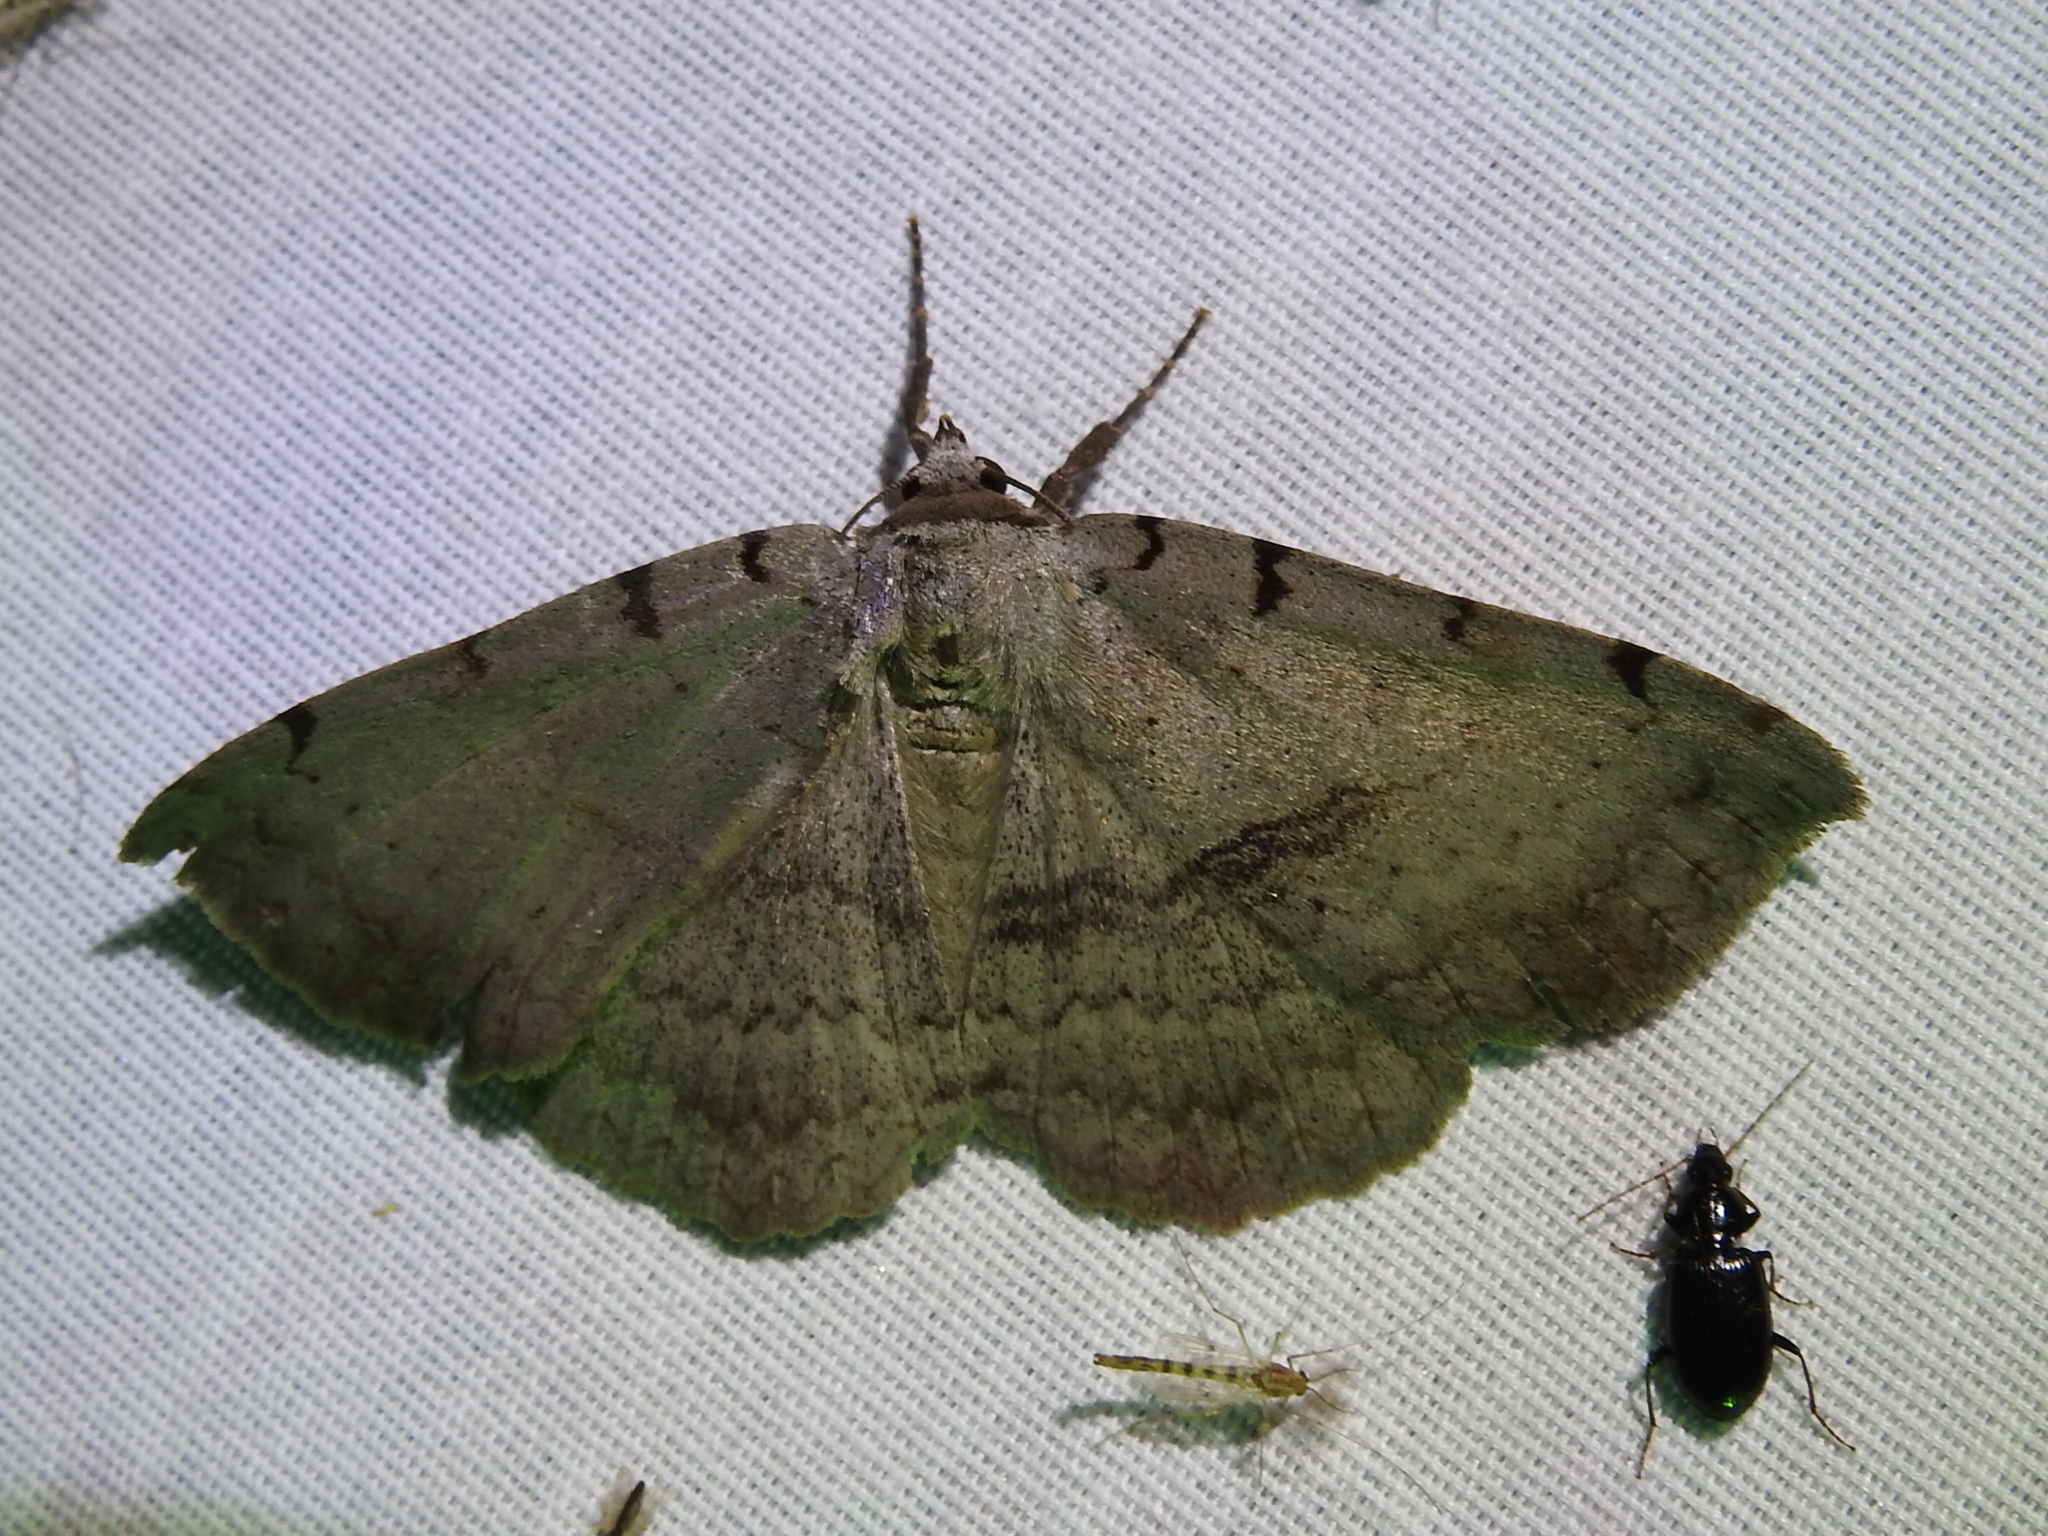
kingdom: Animalia
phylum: Arthropoda
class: Insecta
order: Lepidoptera
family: Erebidae
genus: Spiloloma
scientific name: Spiloloma lunilinea
